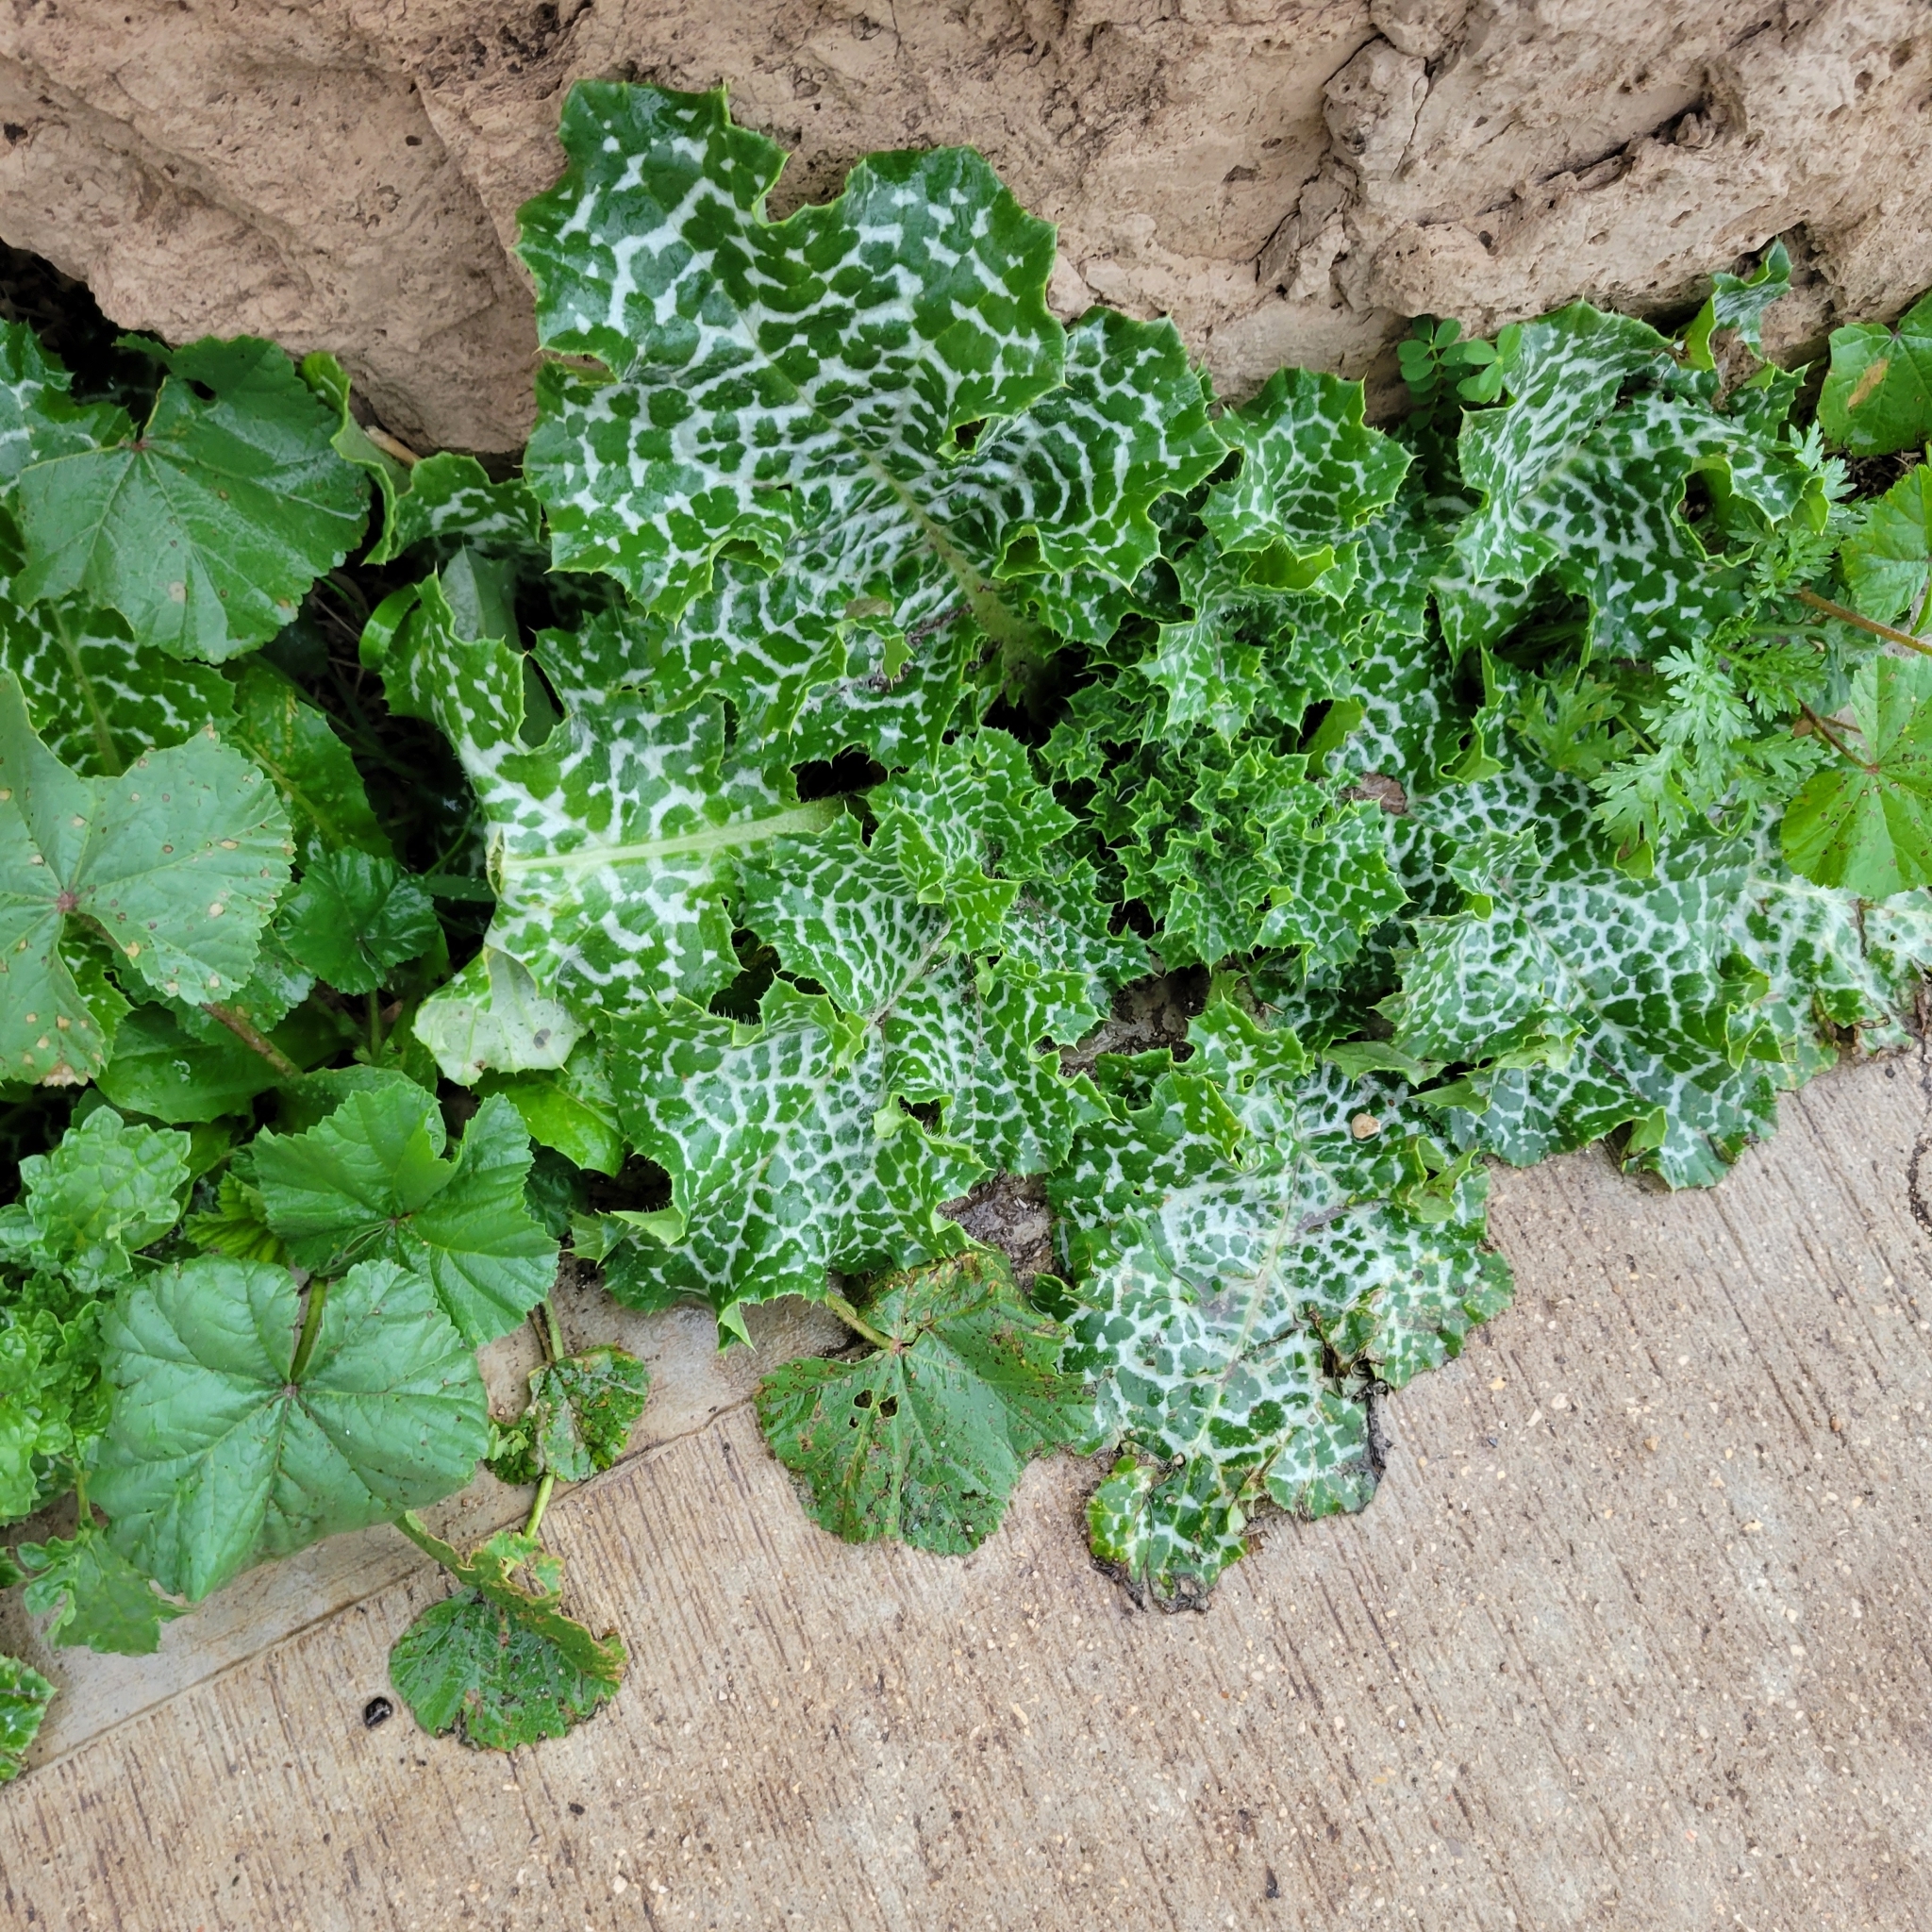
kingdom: Plantae
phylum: Tracheophyta
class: Magnoliopsida
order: Asterales
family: Asteraceae
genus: Silybum
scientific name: Silybum marianum
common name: Milk thistle
